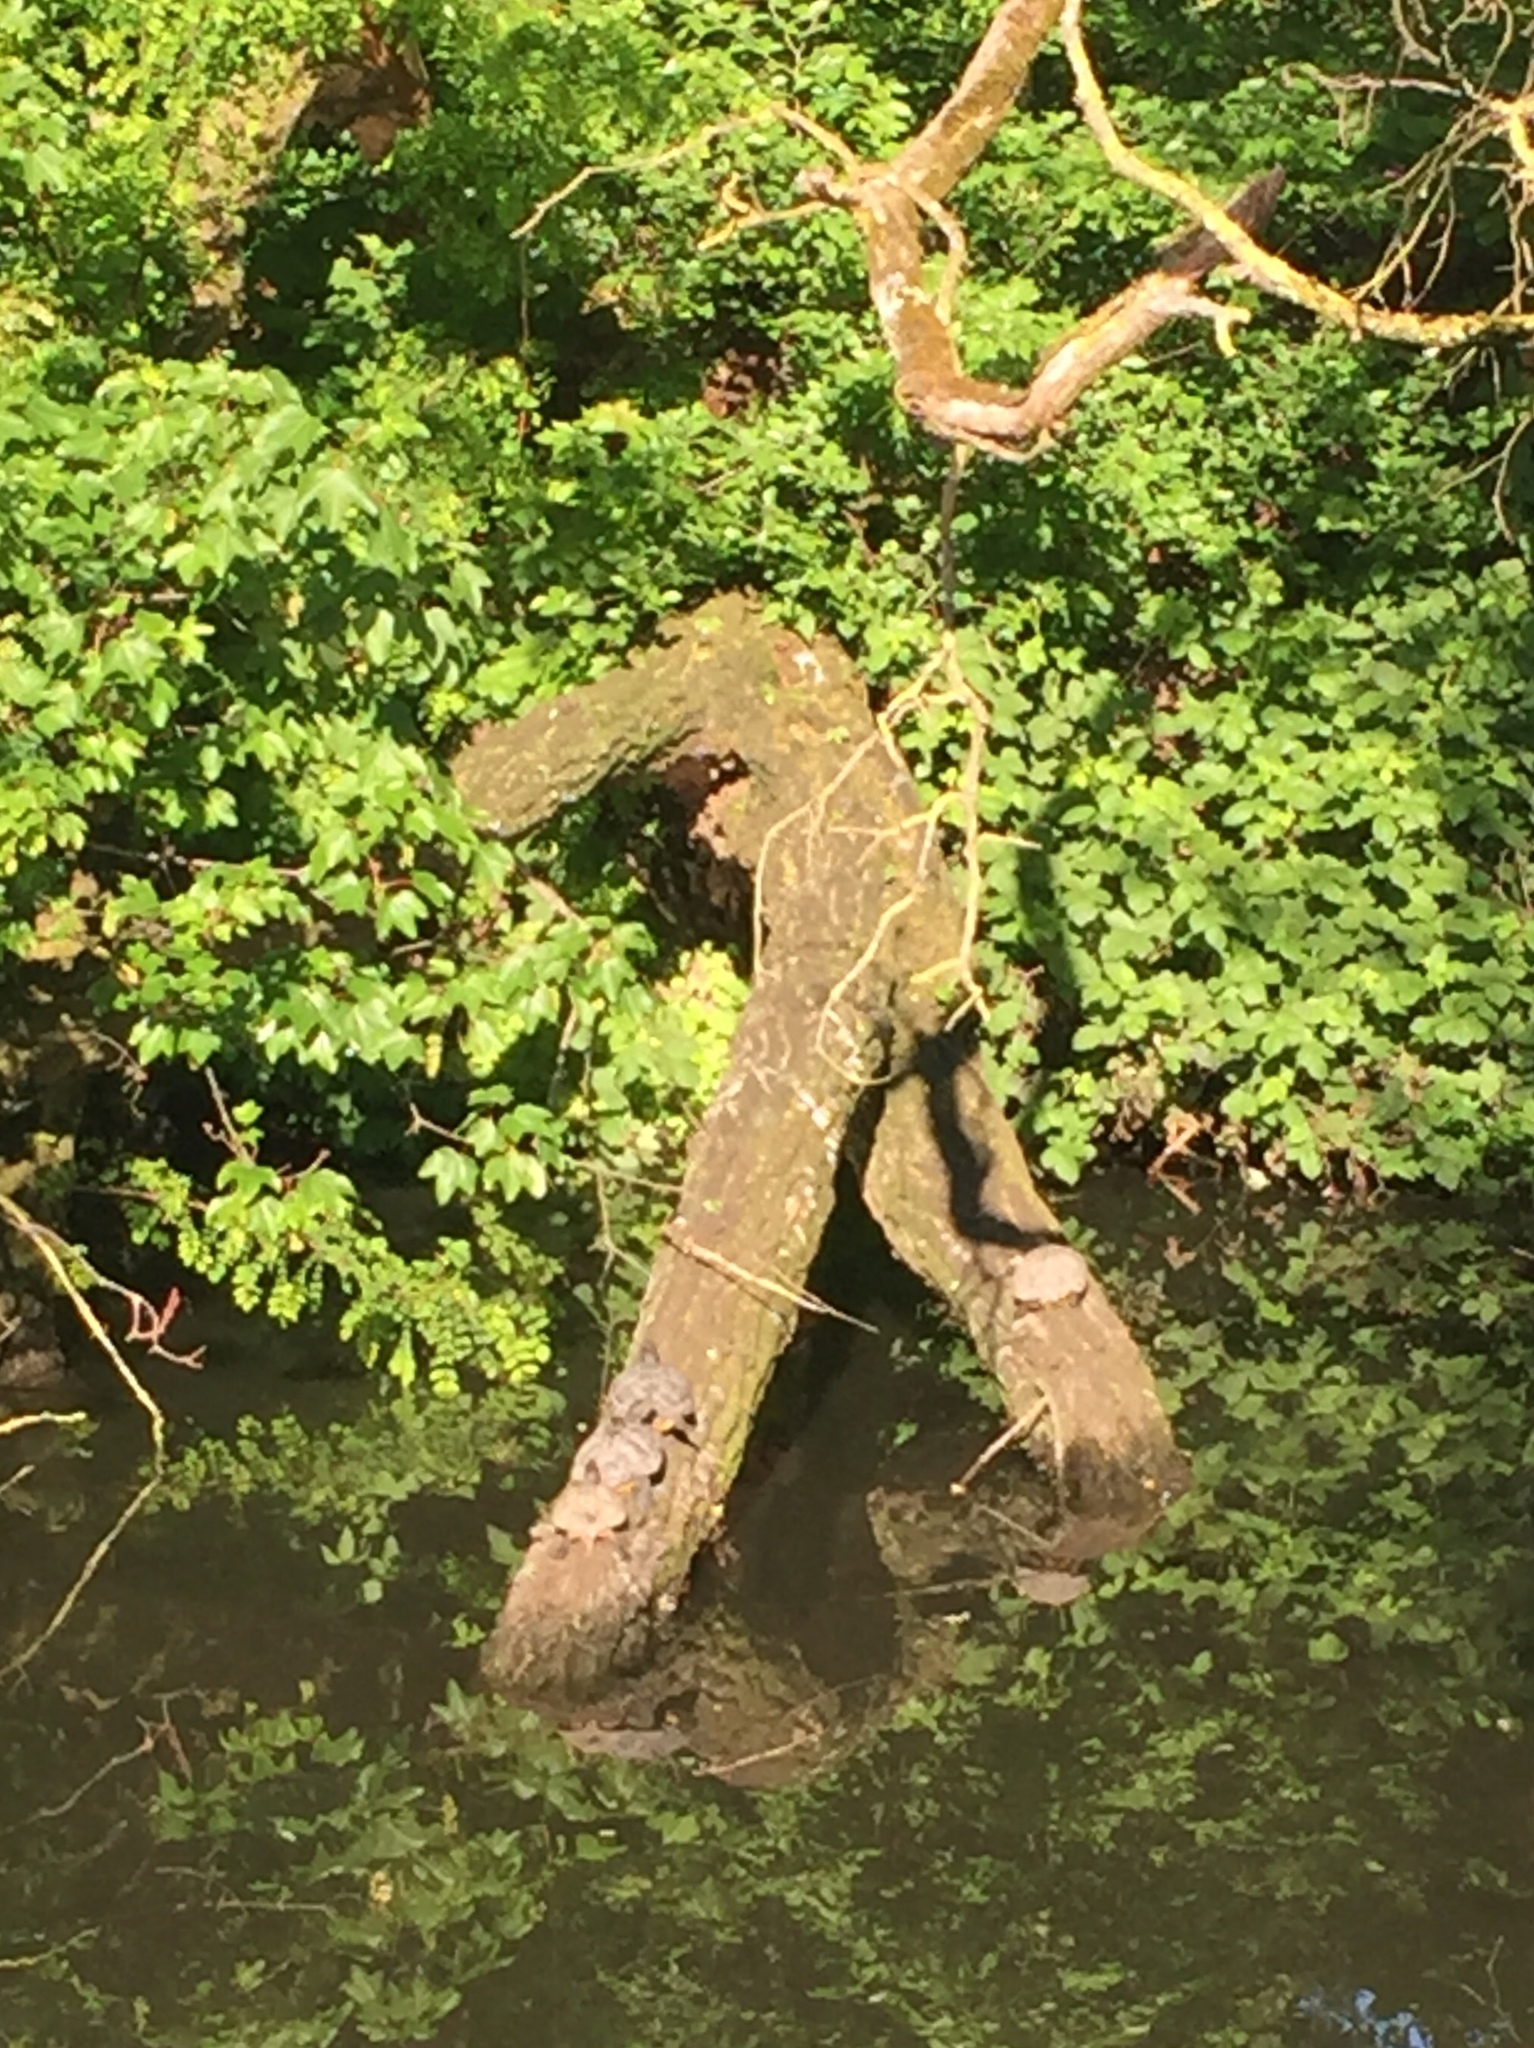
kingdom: Animalia
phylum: Chordata
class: Testudines
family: Emydidae
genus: Trachemys
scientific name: Trachemys scripta
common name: Slider
